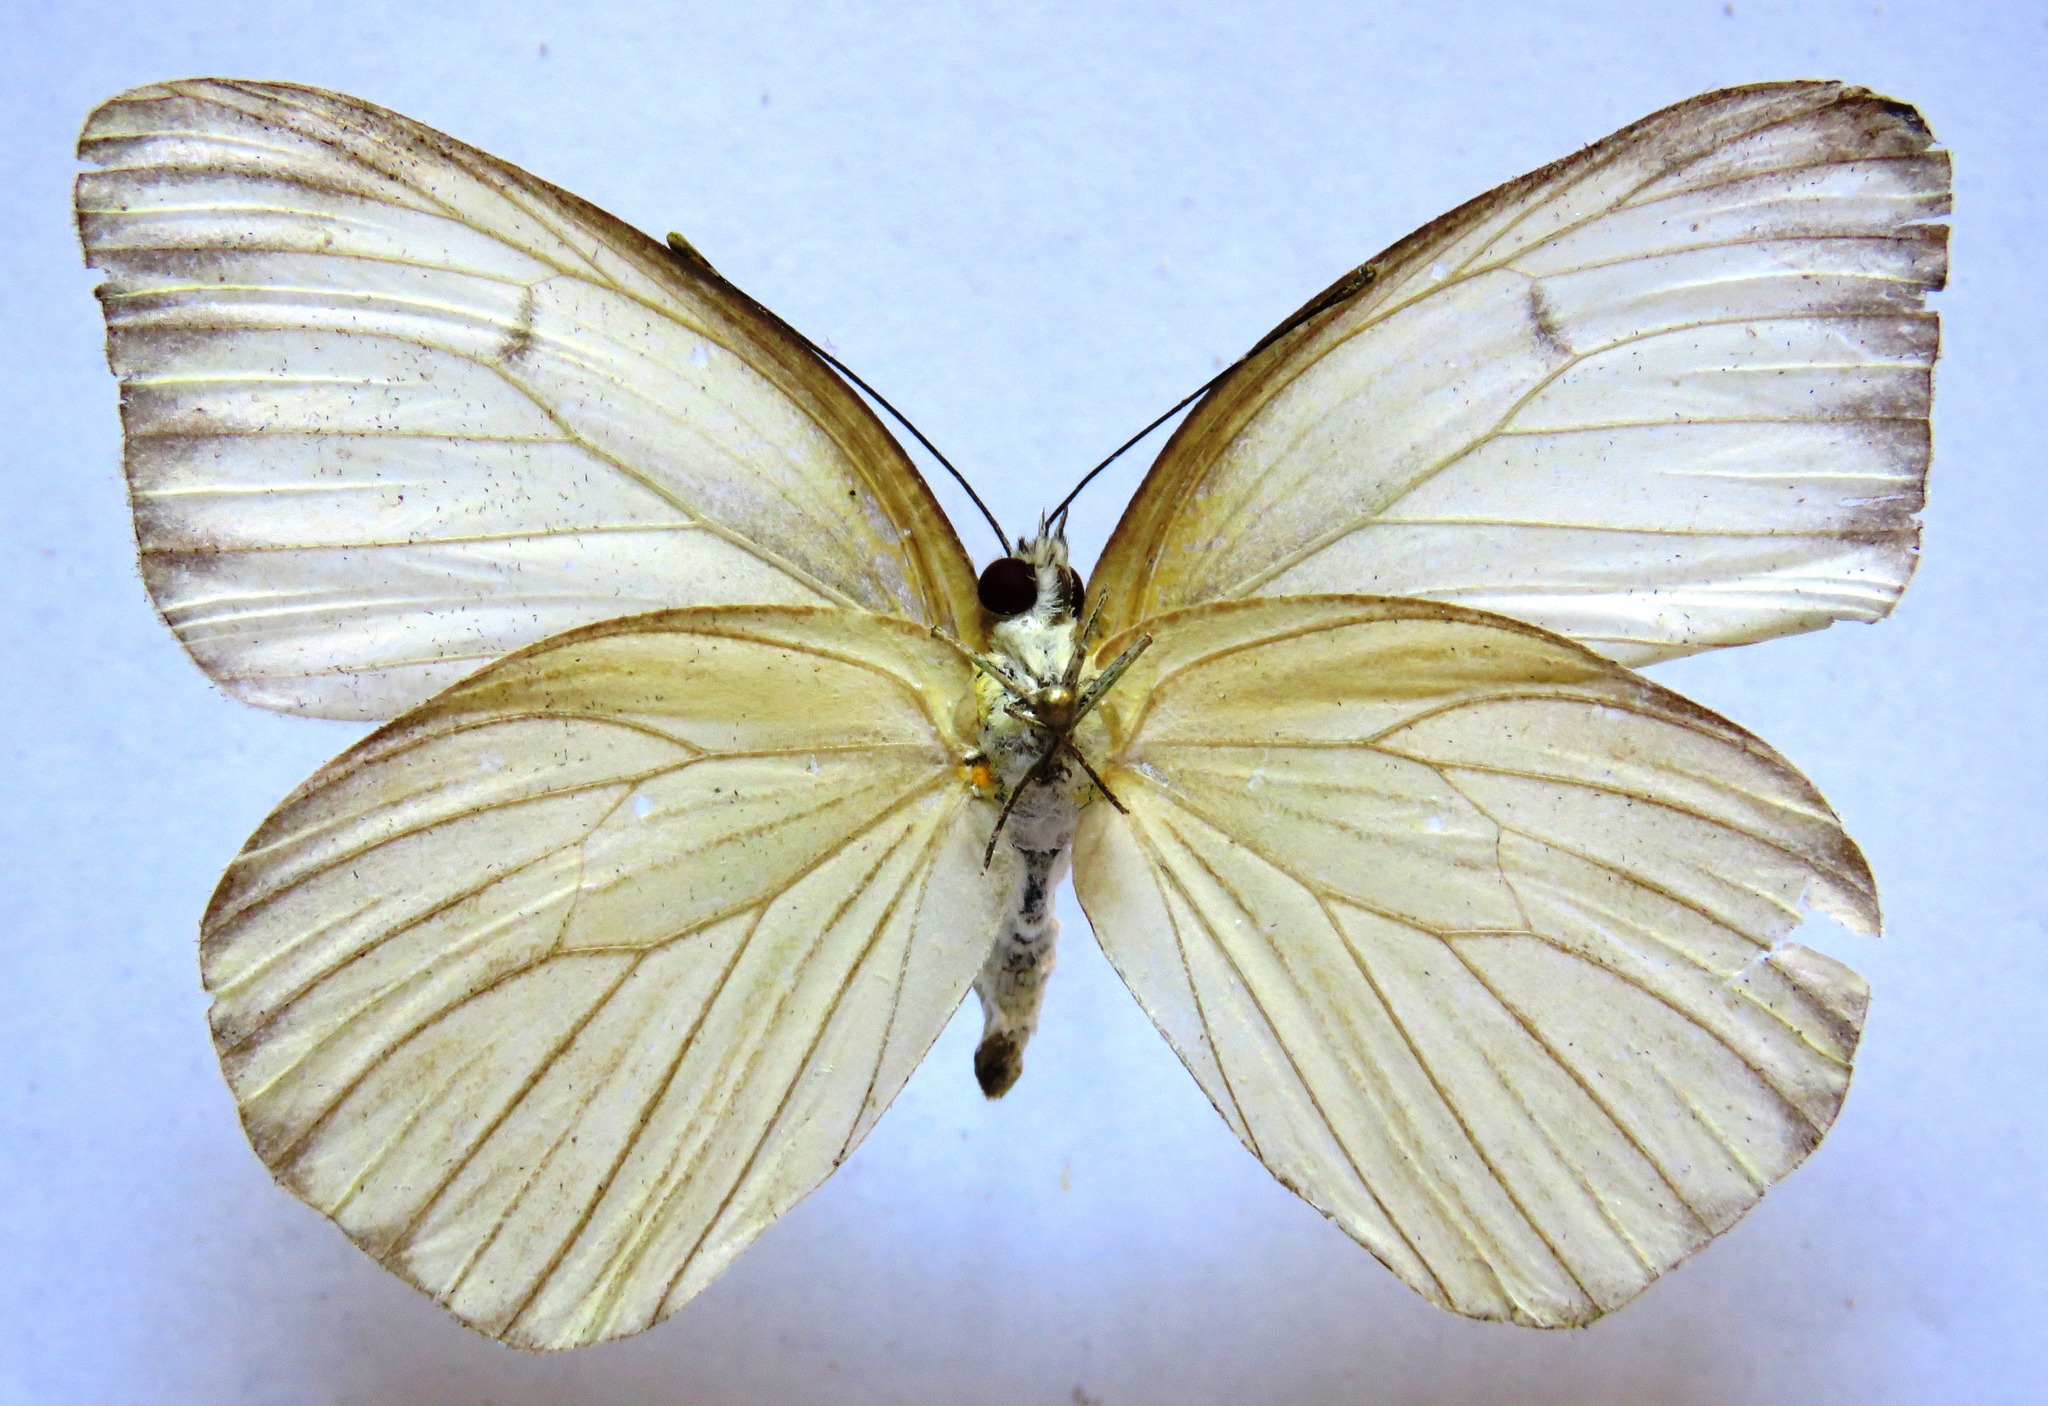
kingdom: Animalia
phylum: Arthropoda
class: Insecta
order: Lepidoptera
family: Pieridae
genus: Ascia
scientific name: Ascia monuste
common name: Great southern white
